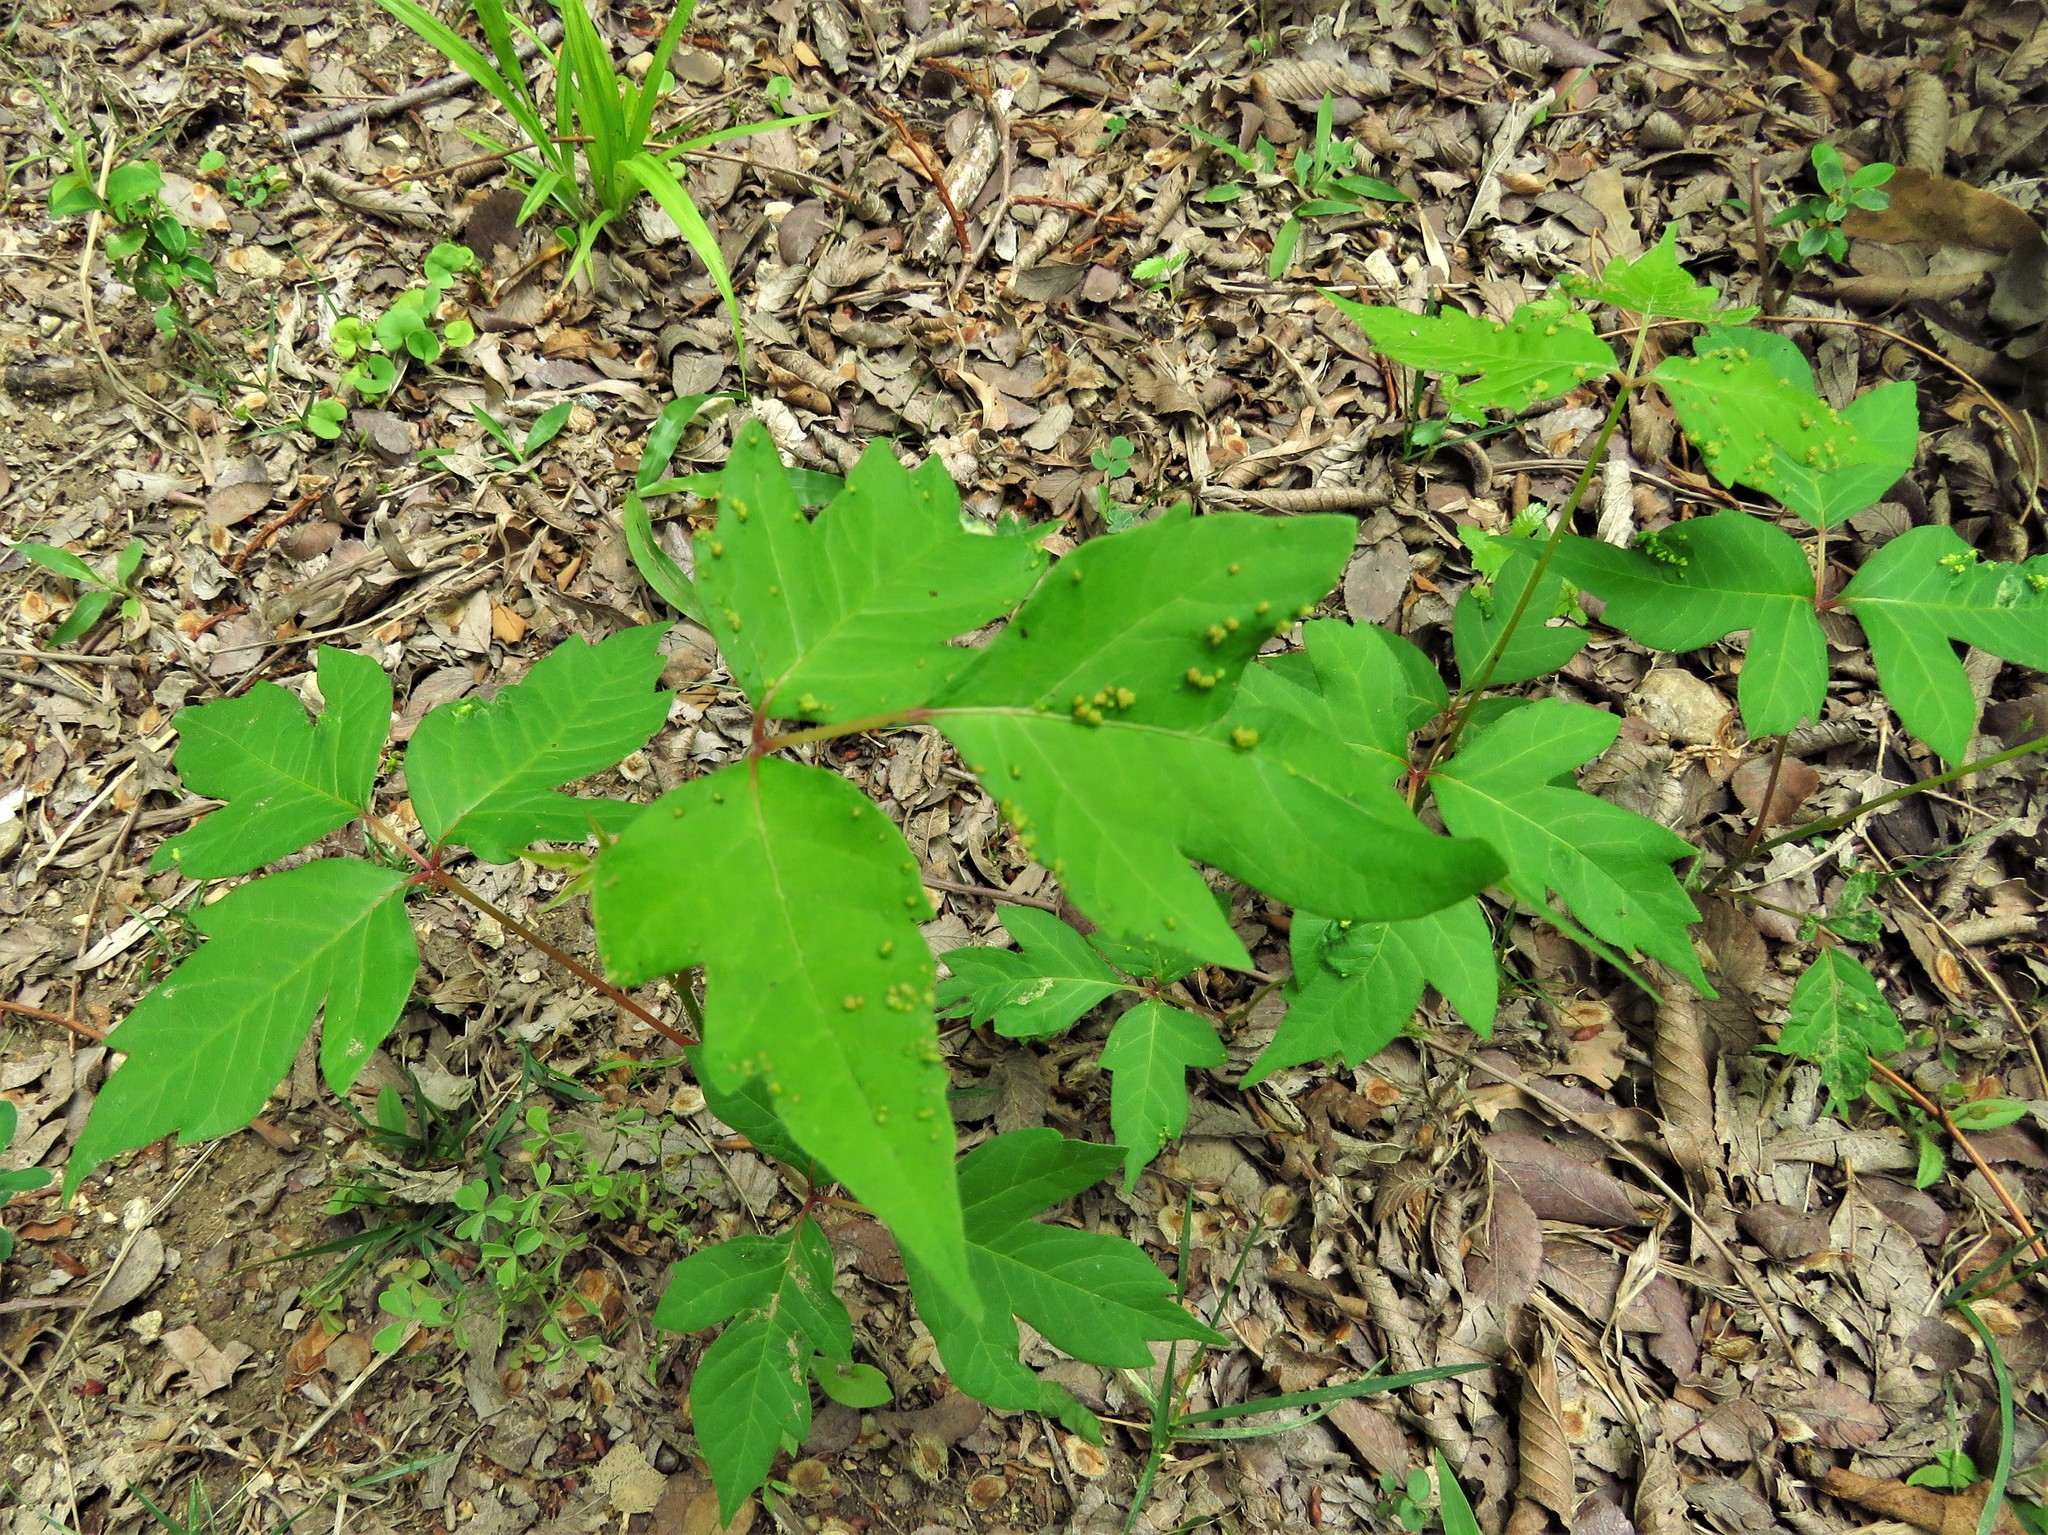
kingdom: Plantae
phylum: Tracheophyta
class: Magnoliopsida
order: Sapindales
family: Anacardiaceae
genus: Toxicodendron
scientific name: Toxicodendron radicans
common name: Poison ivy
